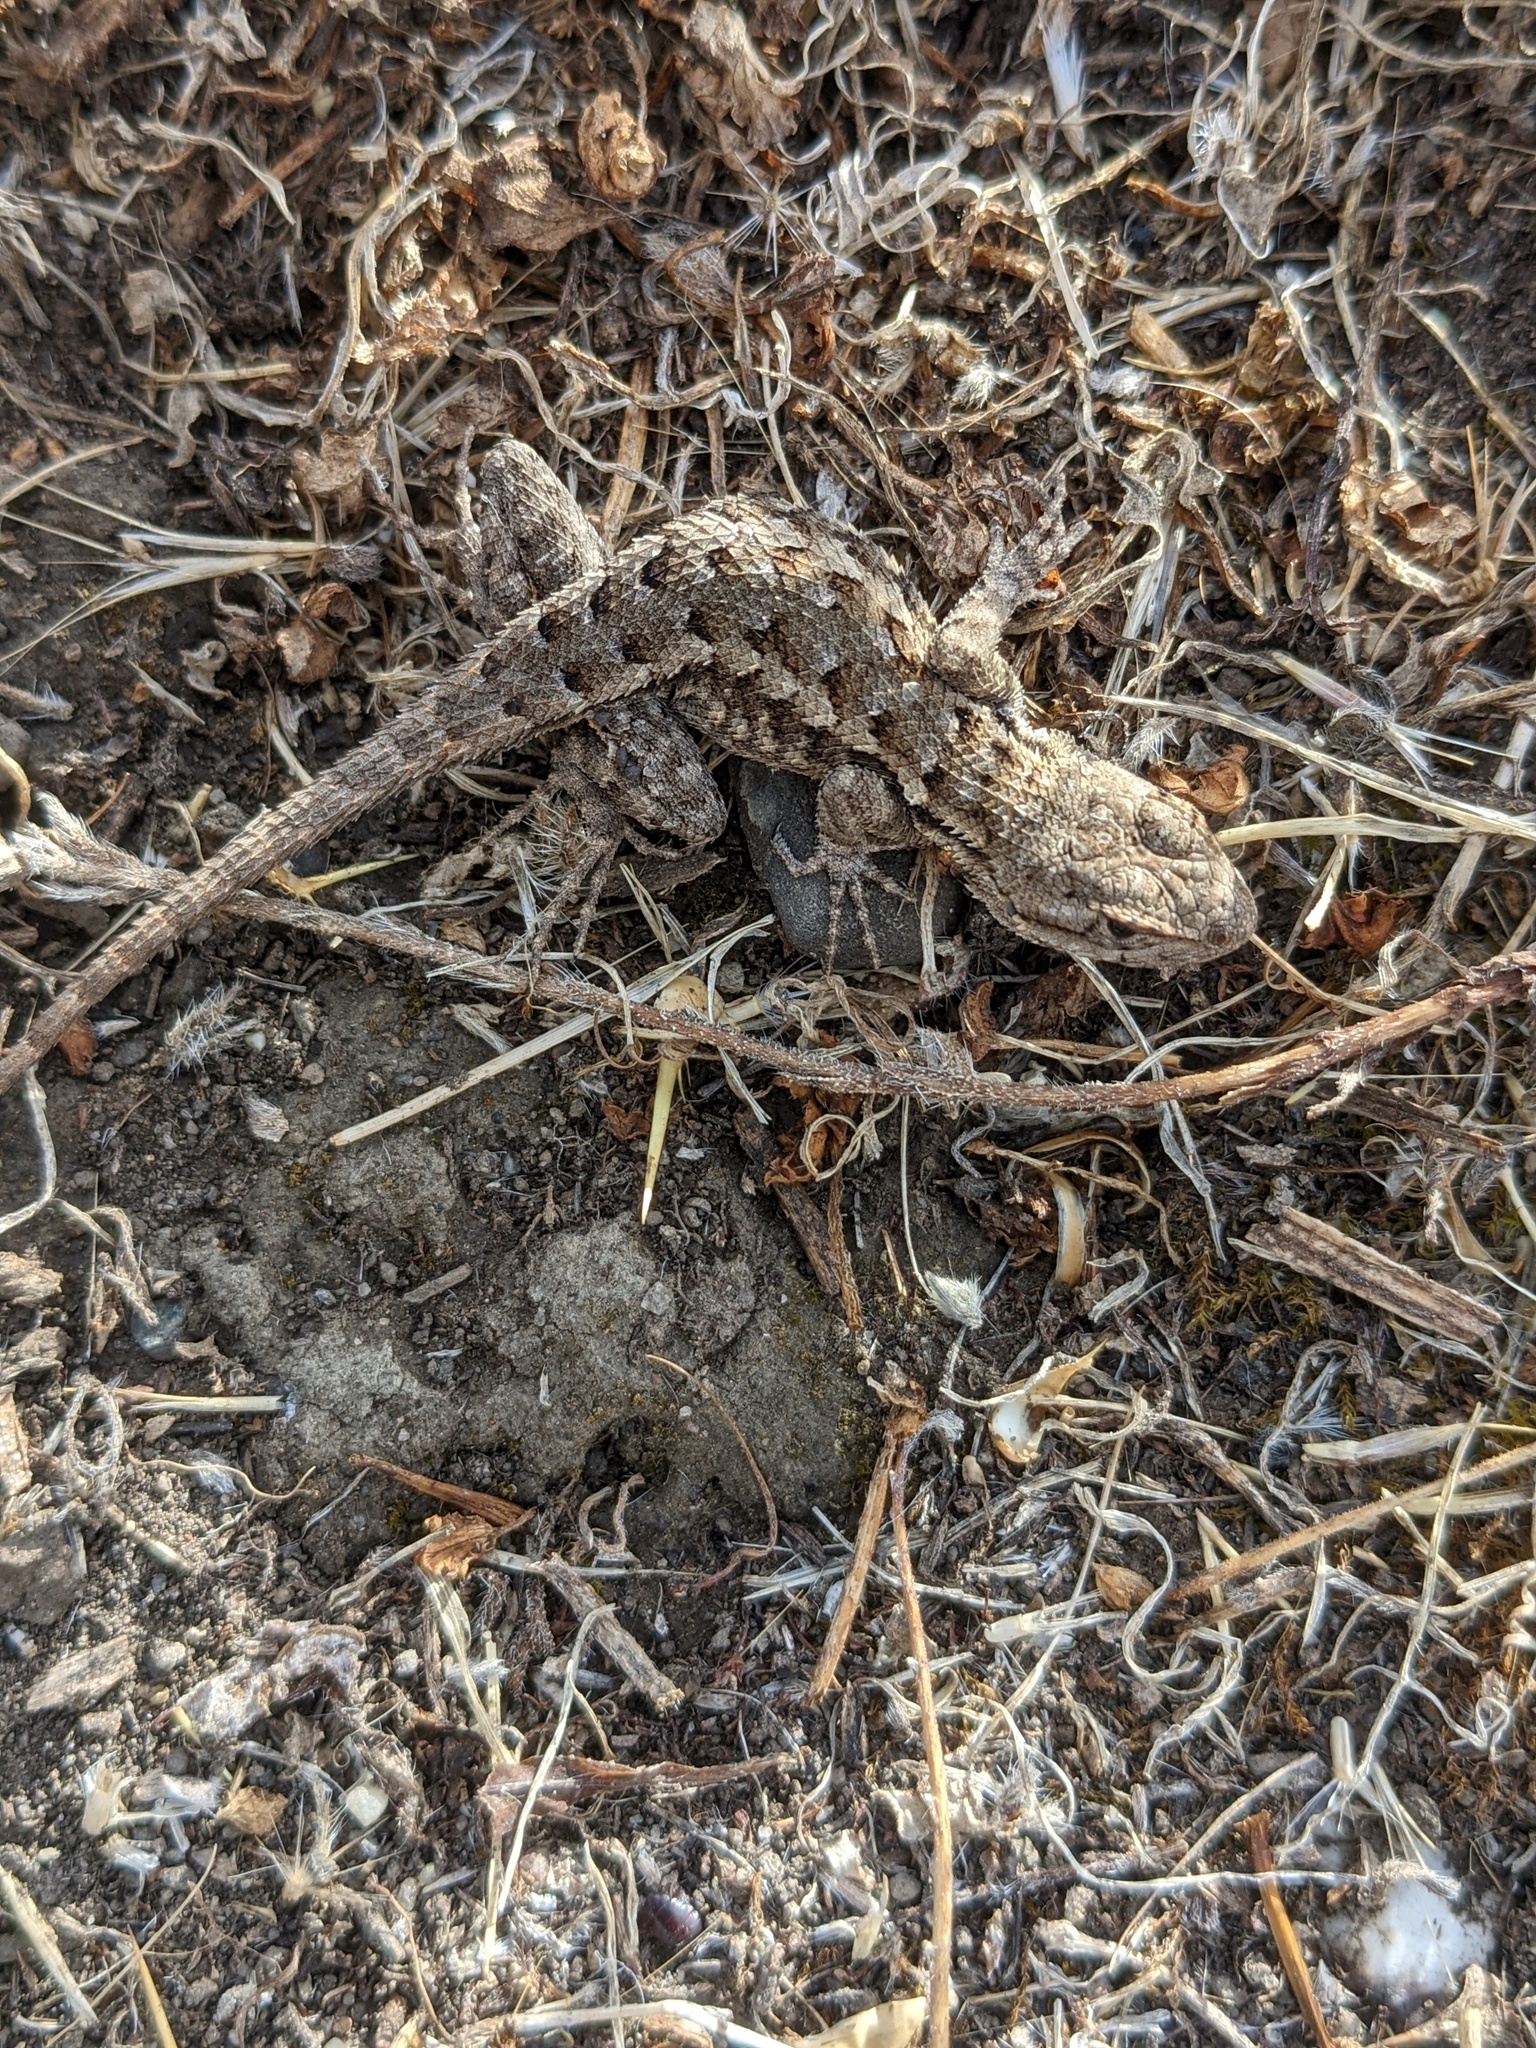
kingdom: Animalia
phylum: Chordata
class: Squamata
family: Phrynosomatidae
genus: Sceloporus
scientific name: Sceloporus occidentalis
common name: Western fence lizard
